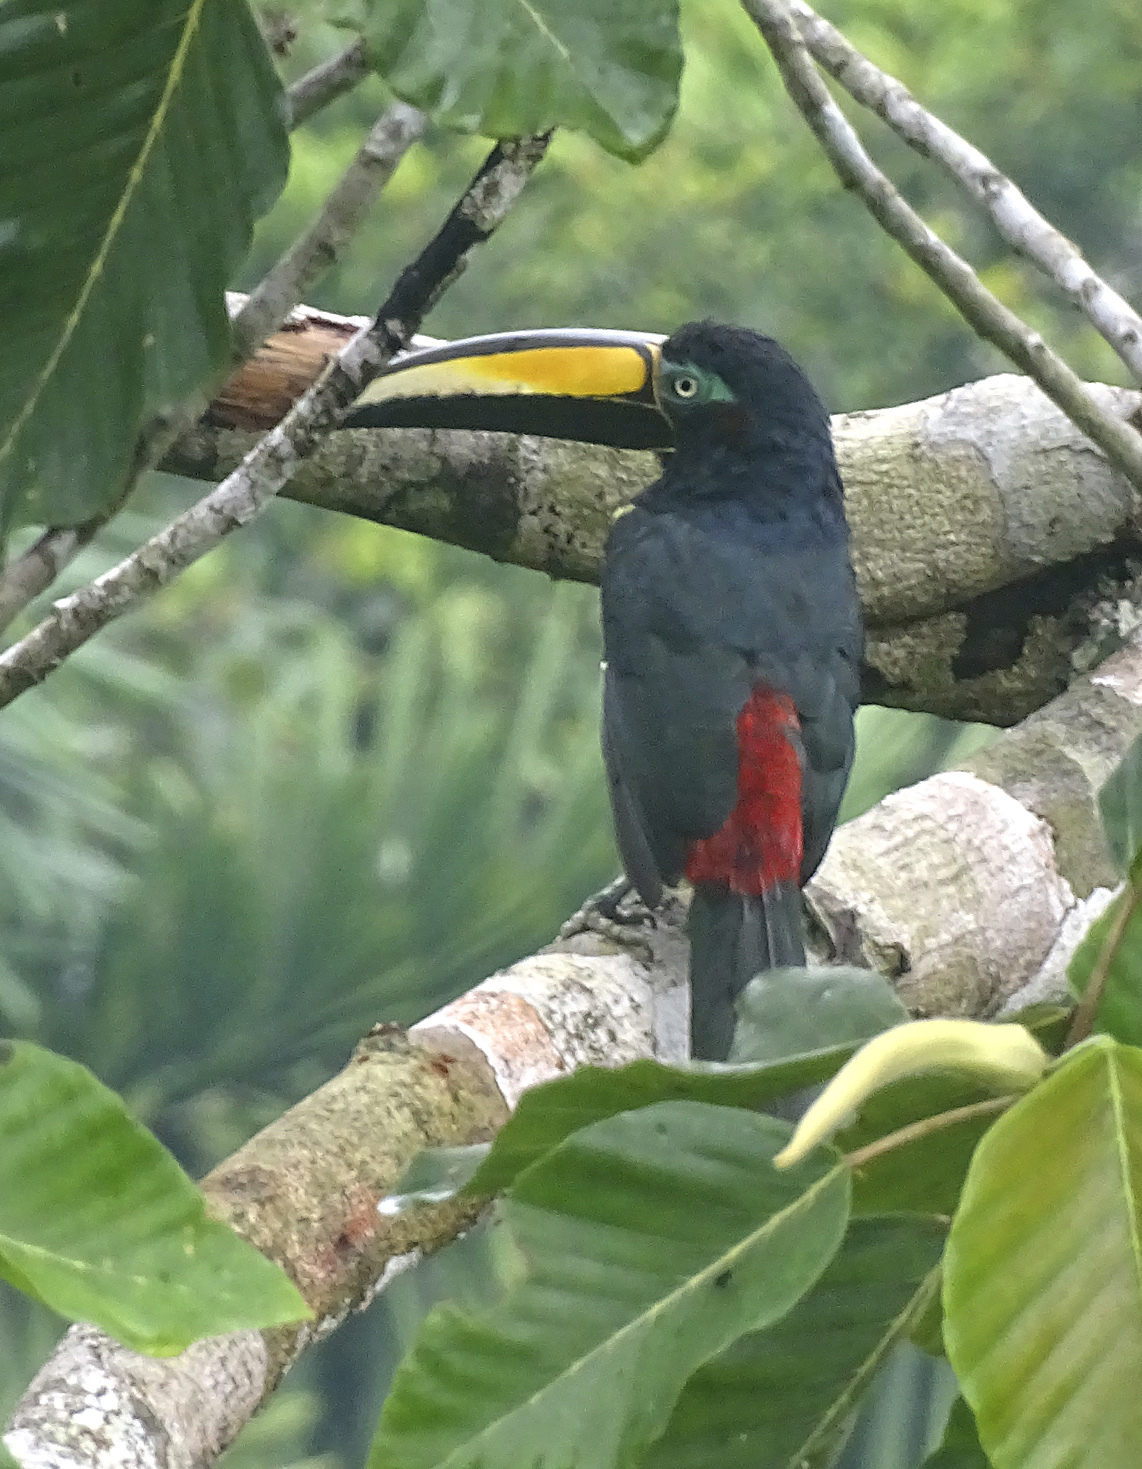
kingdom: Animalia
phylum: Chordata
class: Aves
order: Piciformes
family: Ramphastidae
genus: Pteroglossus
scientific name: Pteroglossus pluricinctus
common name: Many-banded aracari
